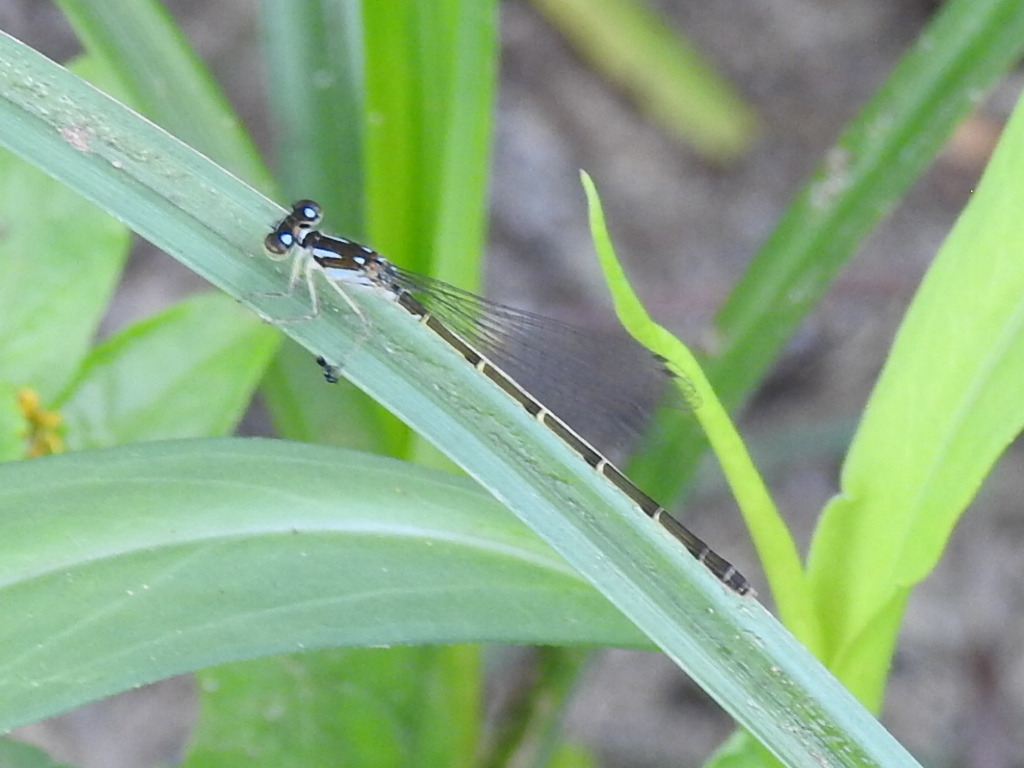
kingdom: Animalia
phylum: Arthropoda
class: Insecta
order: Odonata
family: Coenagrionidae
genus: Ischnura
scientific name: Ischnura posita
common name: Fragile forktail
